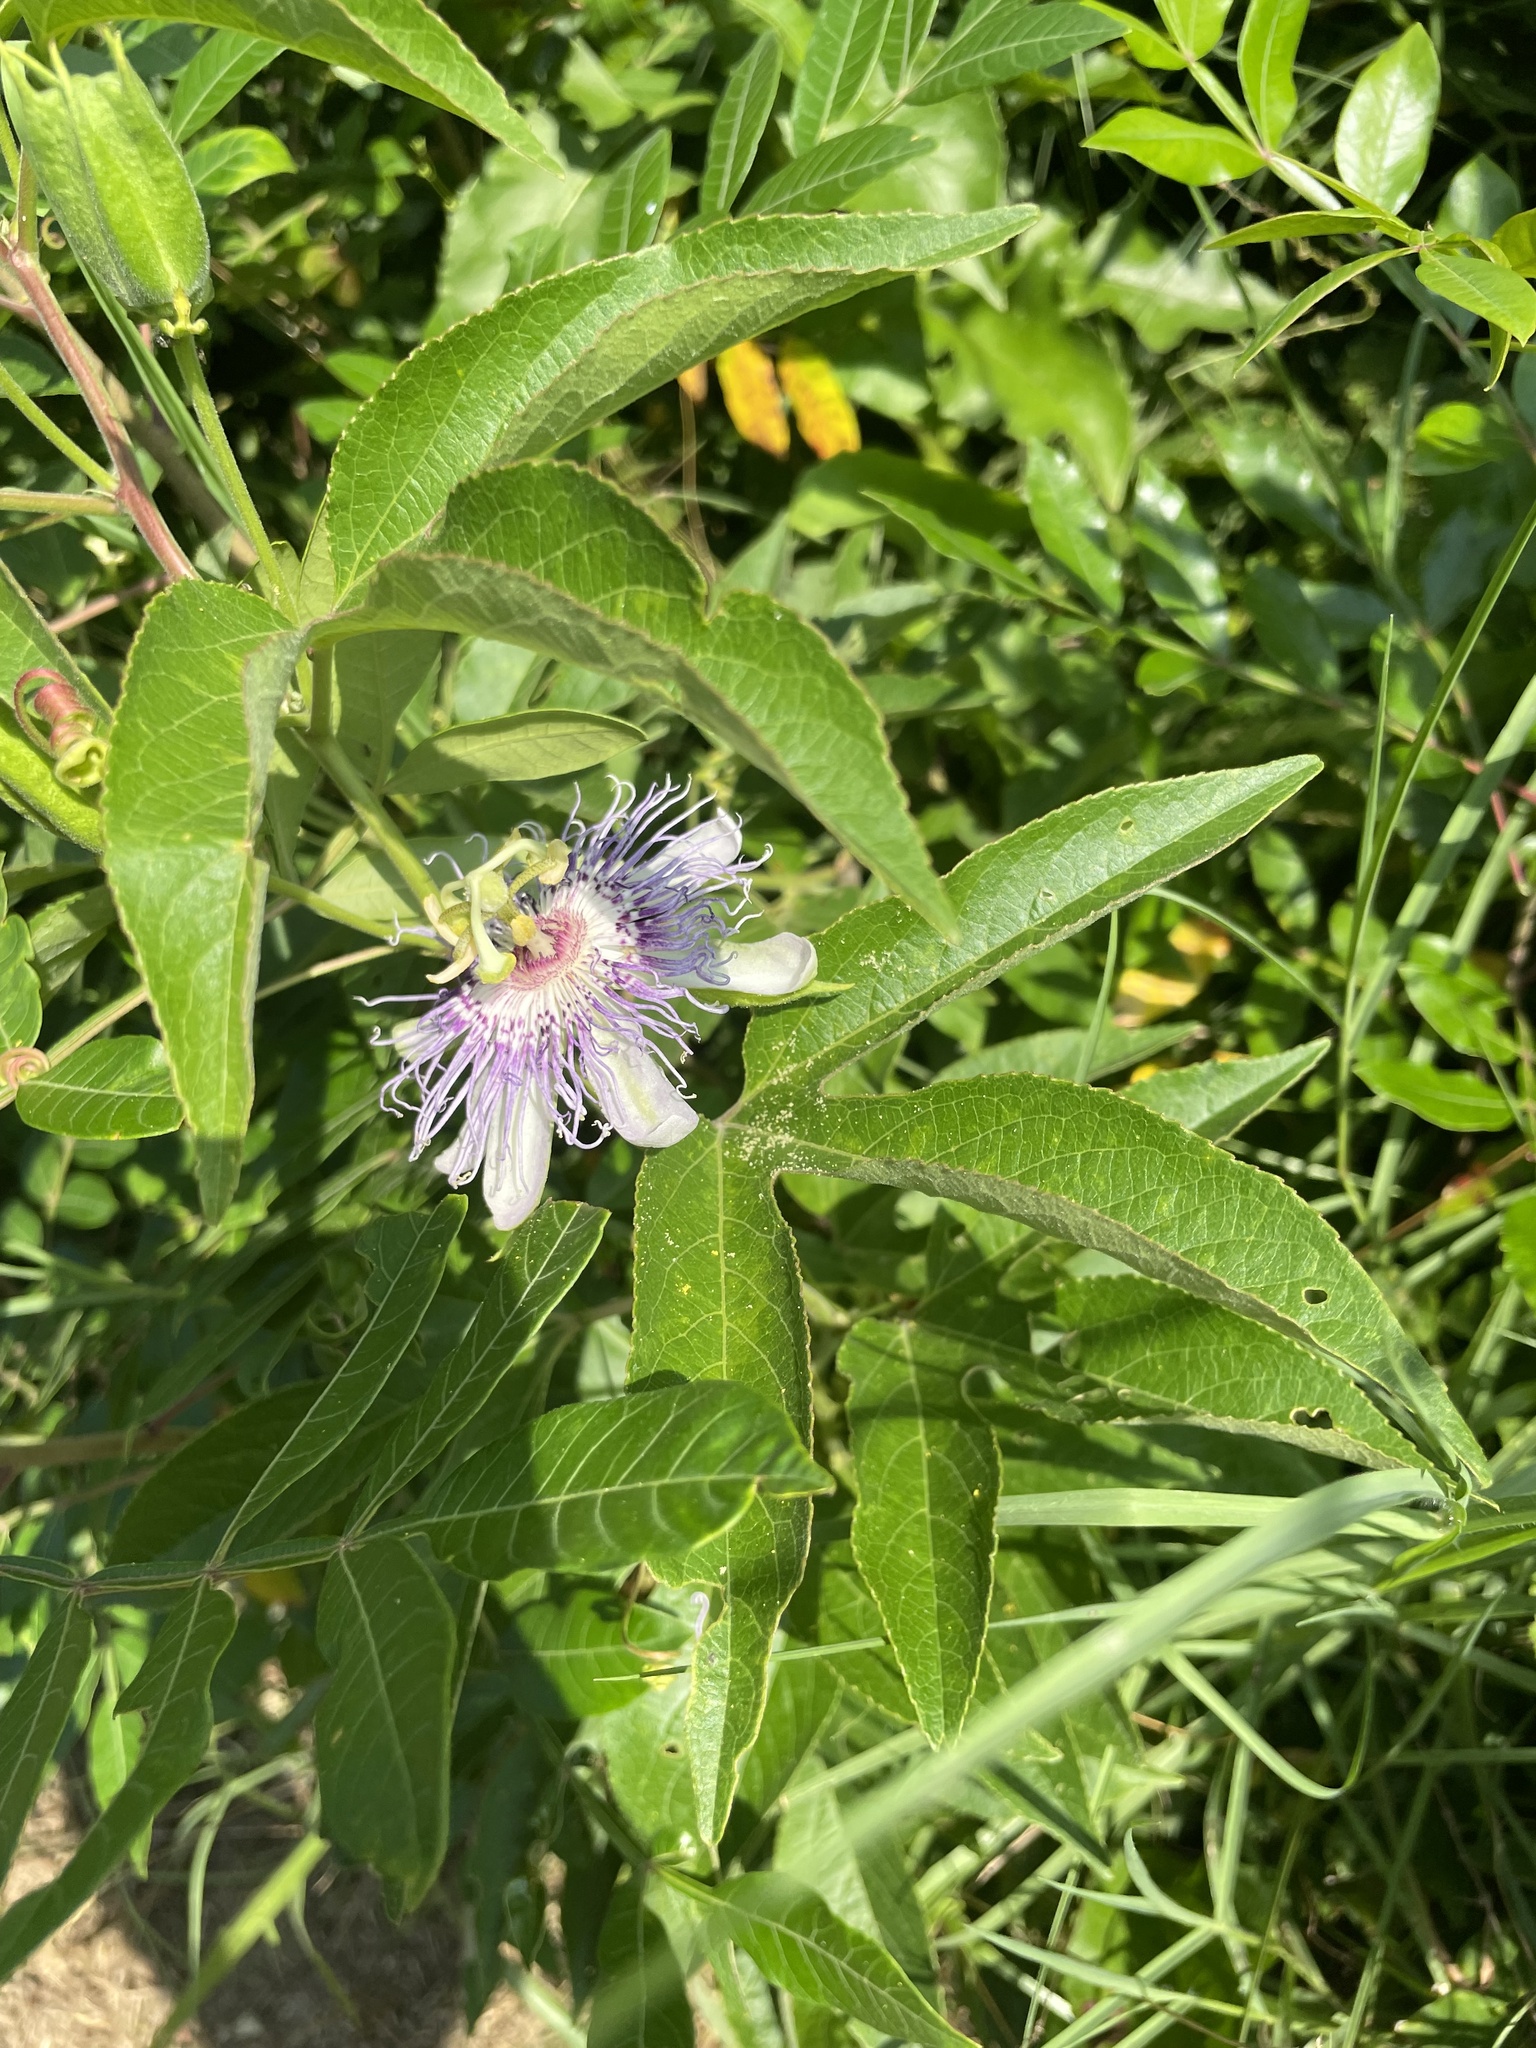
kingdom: Plantae
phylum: Tracheophyta
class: Magnoliopsida
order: Malpighiales
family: Passifloraceae
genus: Passiflora
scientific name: Passiflora incarnata
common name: Apricot-vine
